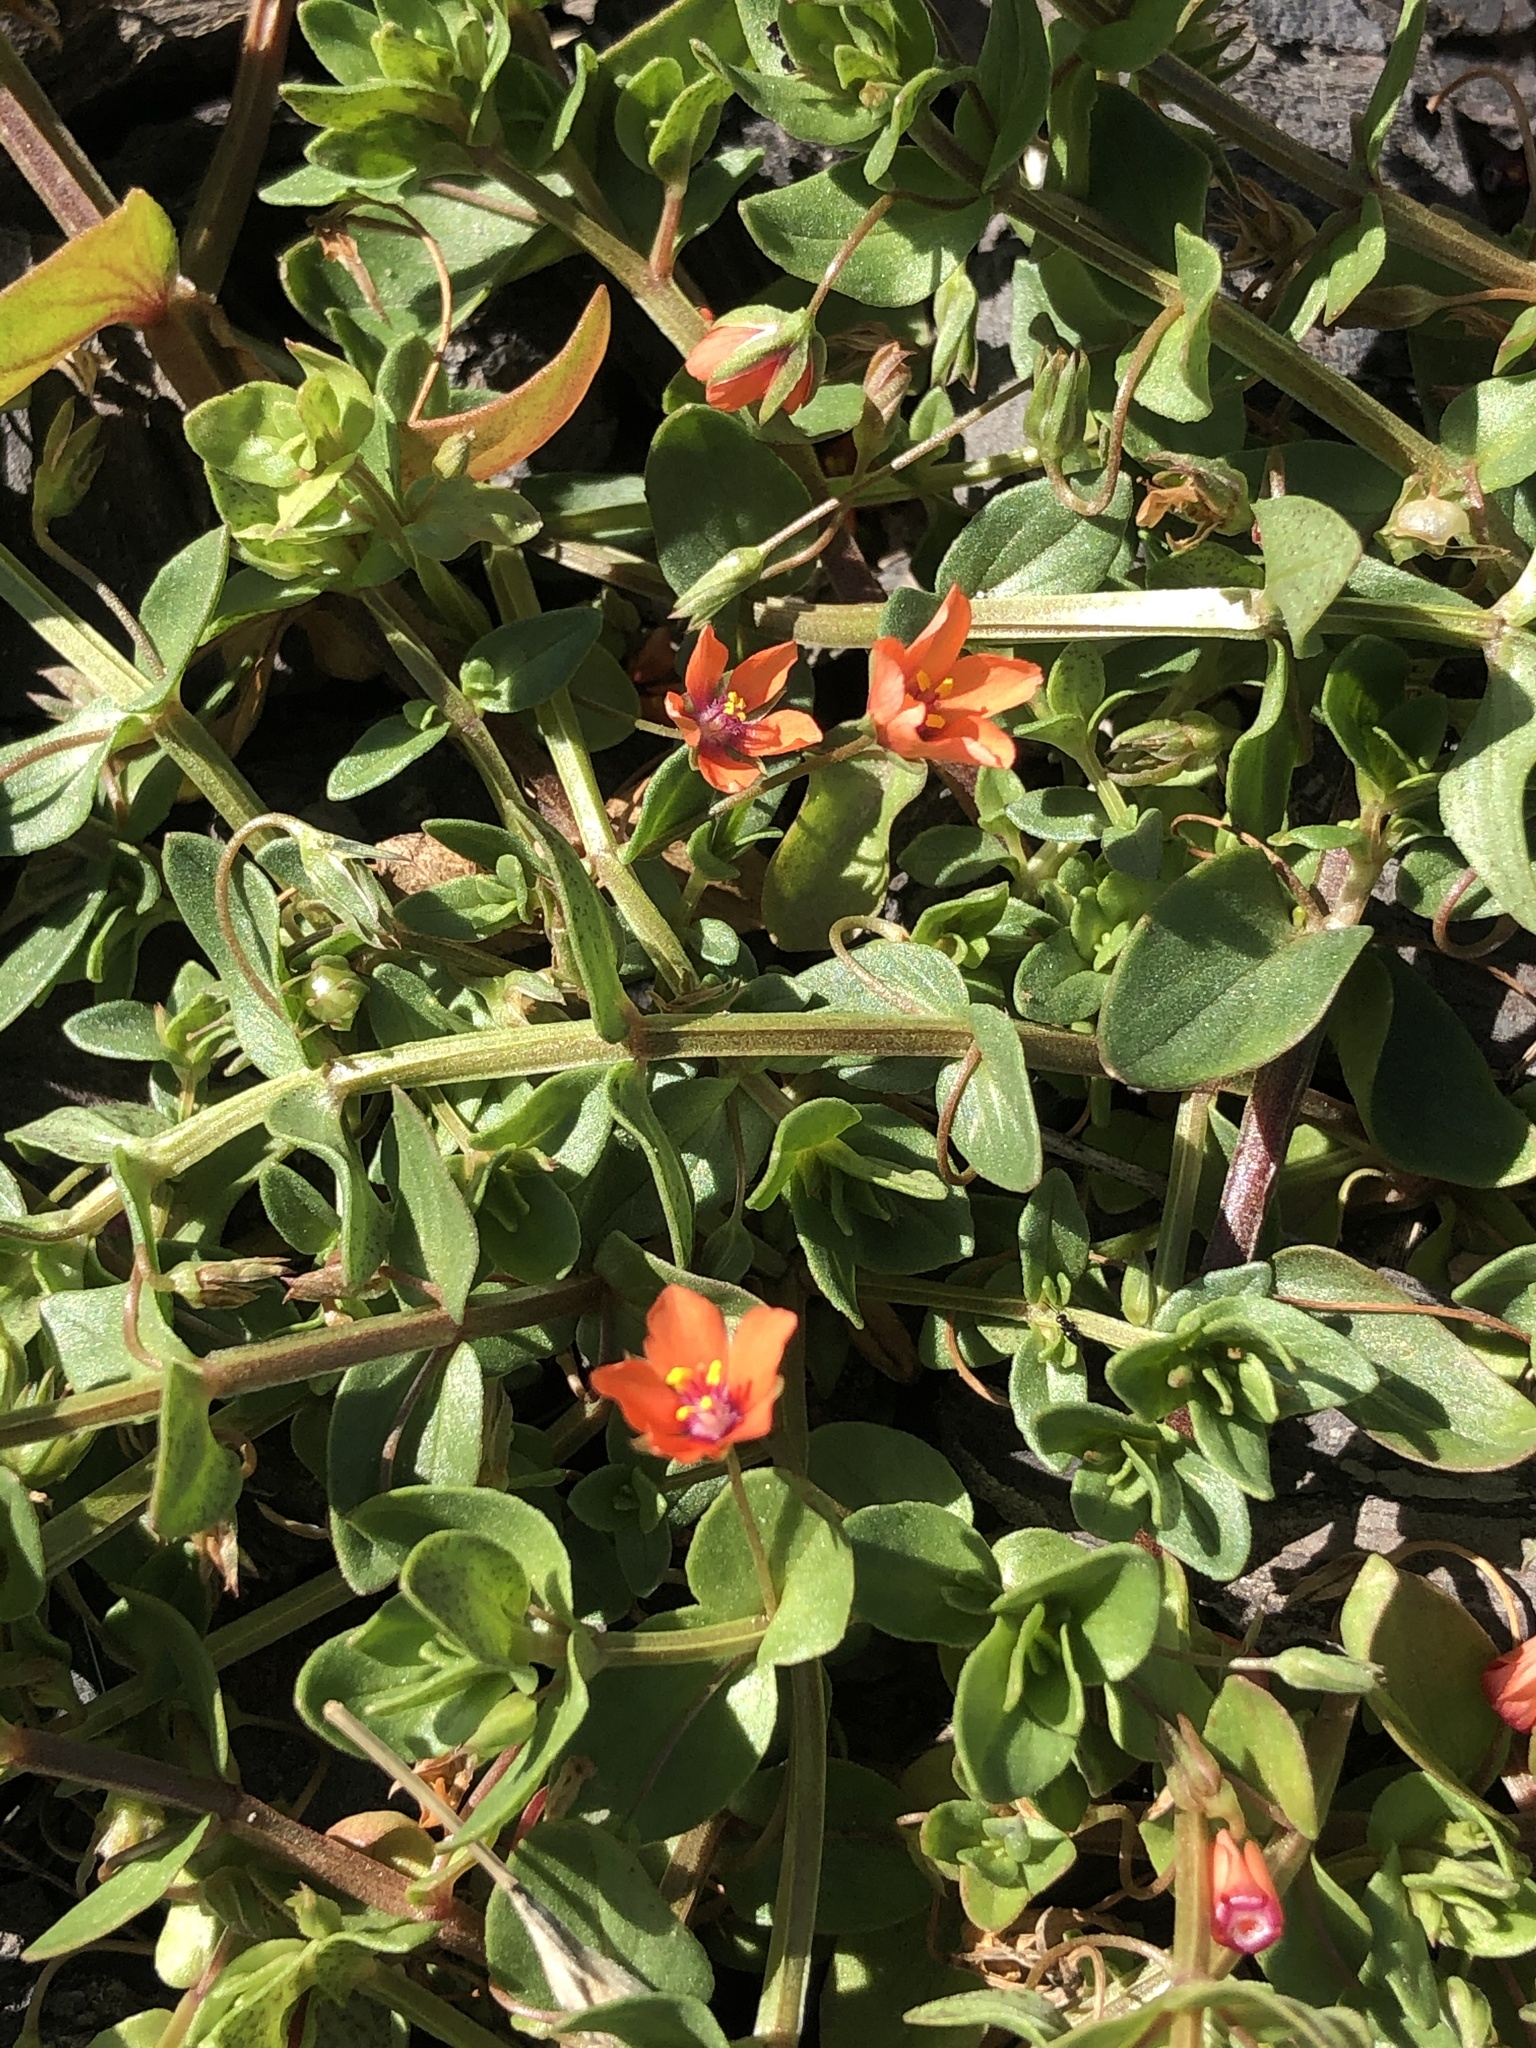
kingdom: Plantae
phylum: Tracheophyta
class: Magnoliopsida
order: Ericales
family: Primulaceae
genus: Lysimachia
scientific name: Lysimachia arvensis
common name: Scarlet pimpernel
